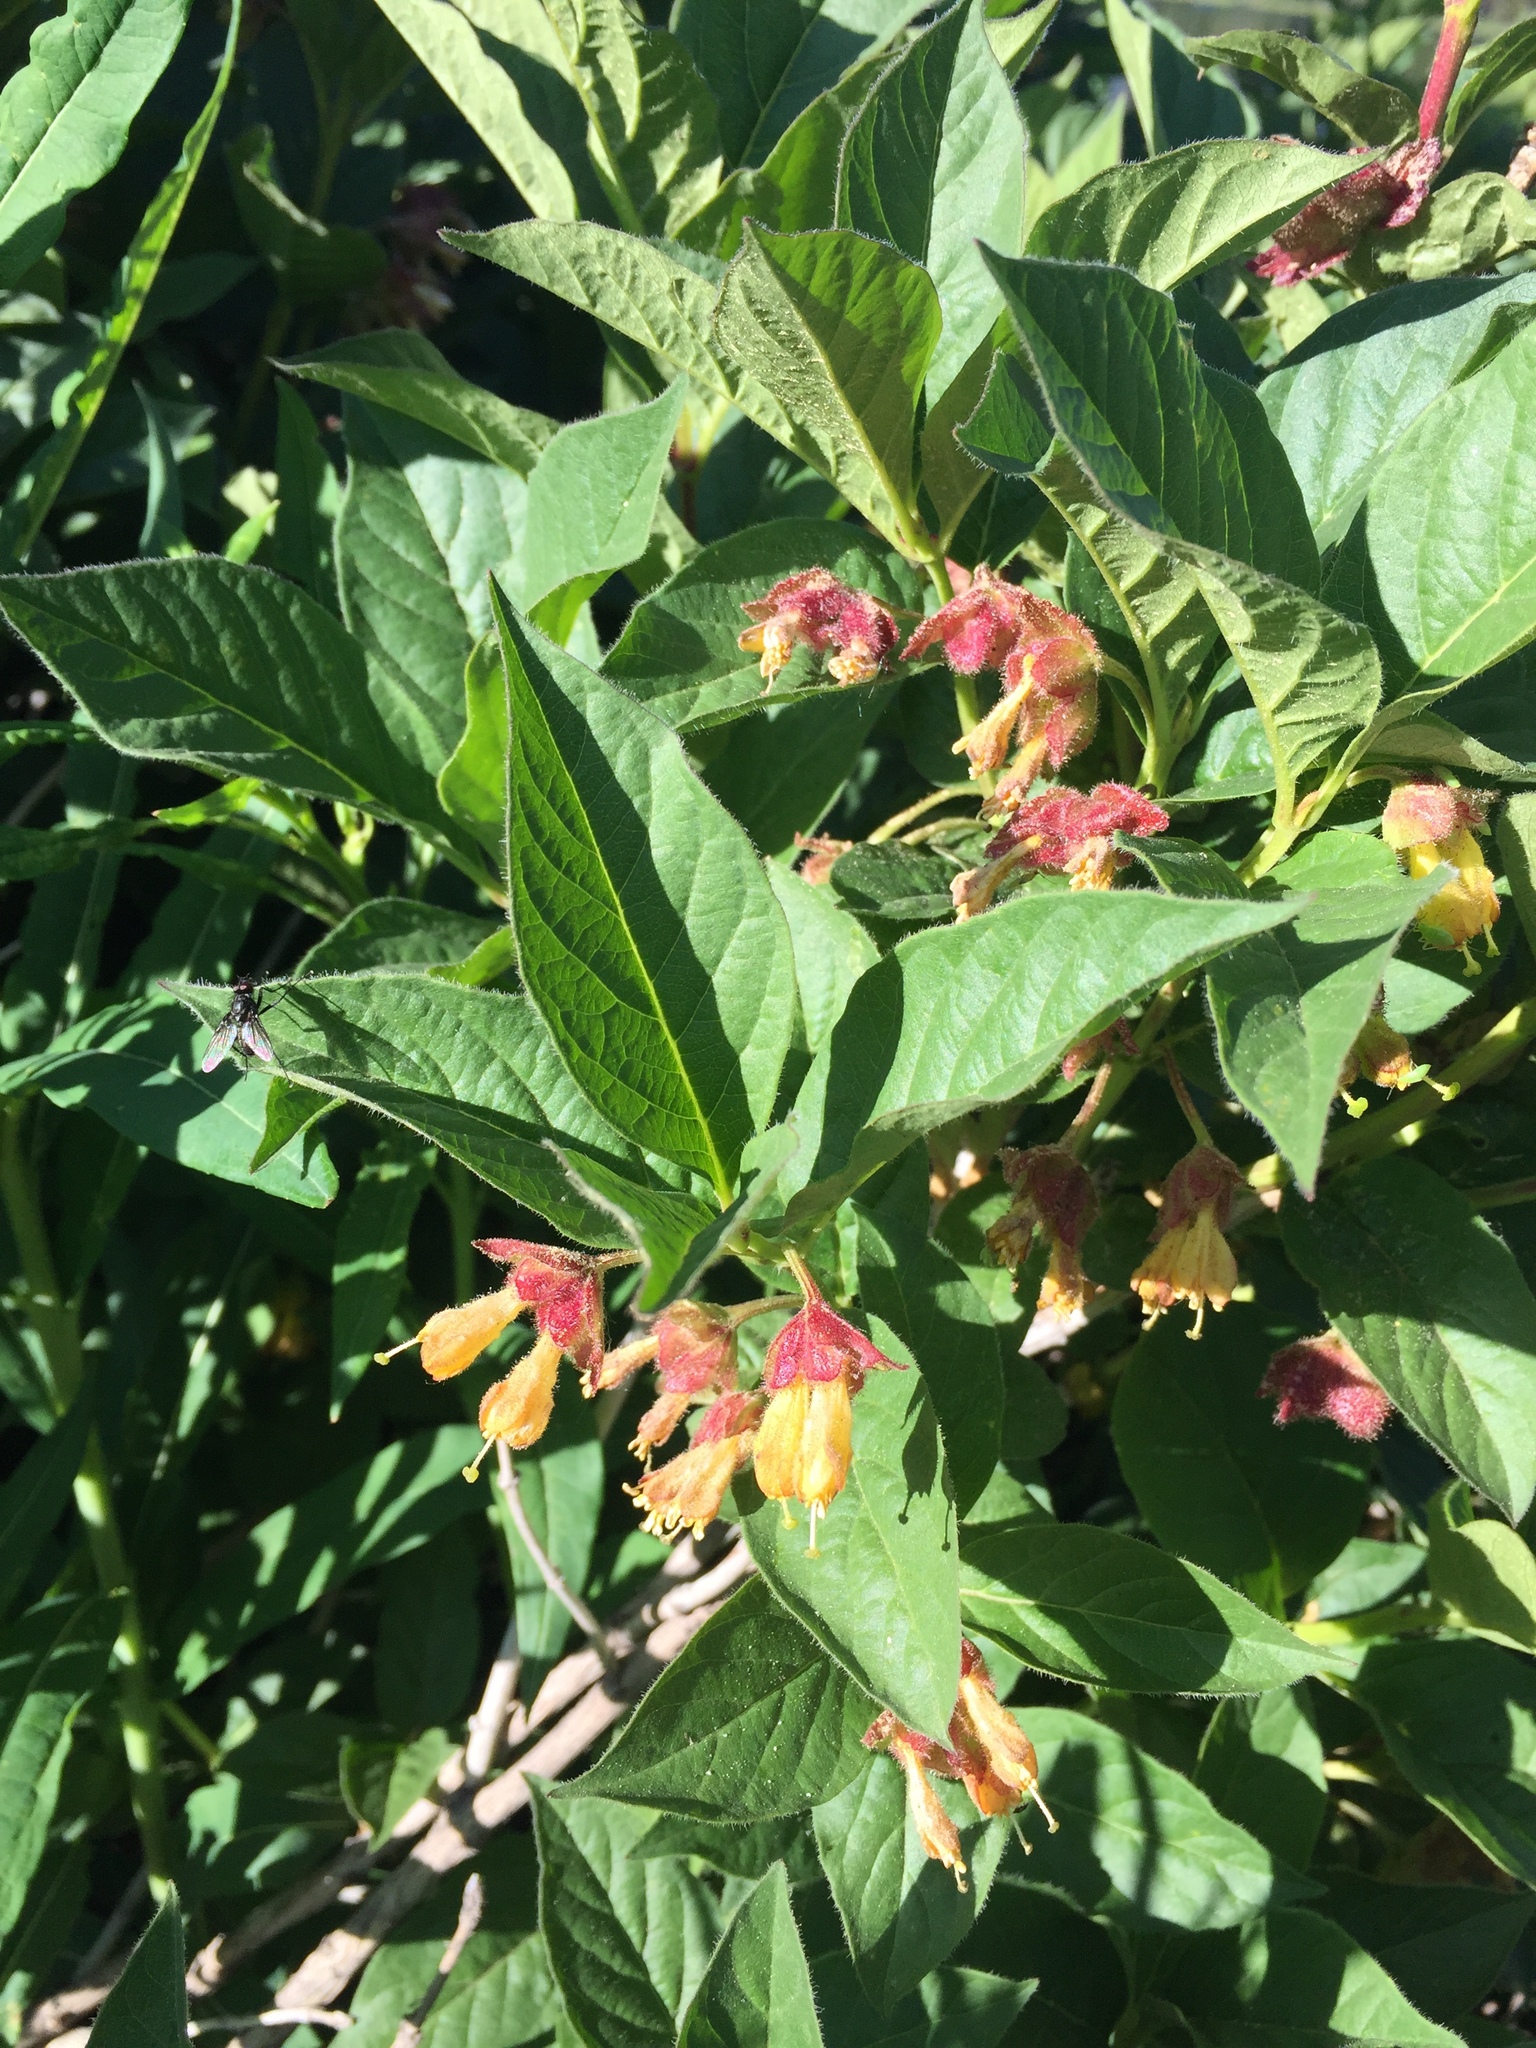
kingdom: Plantae
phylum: Tracheophyta
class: Magnoliopsida
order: Dipsacales
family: Caprifoliaceae
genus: Lonicera
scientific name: Lonicera involucrata
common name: Californian honeysuckle
